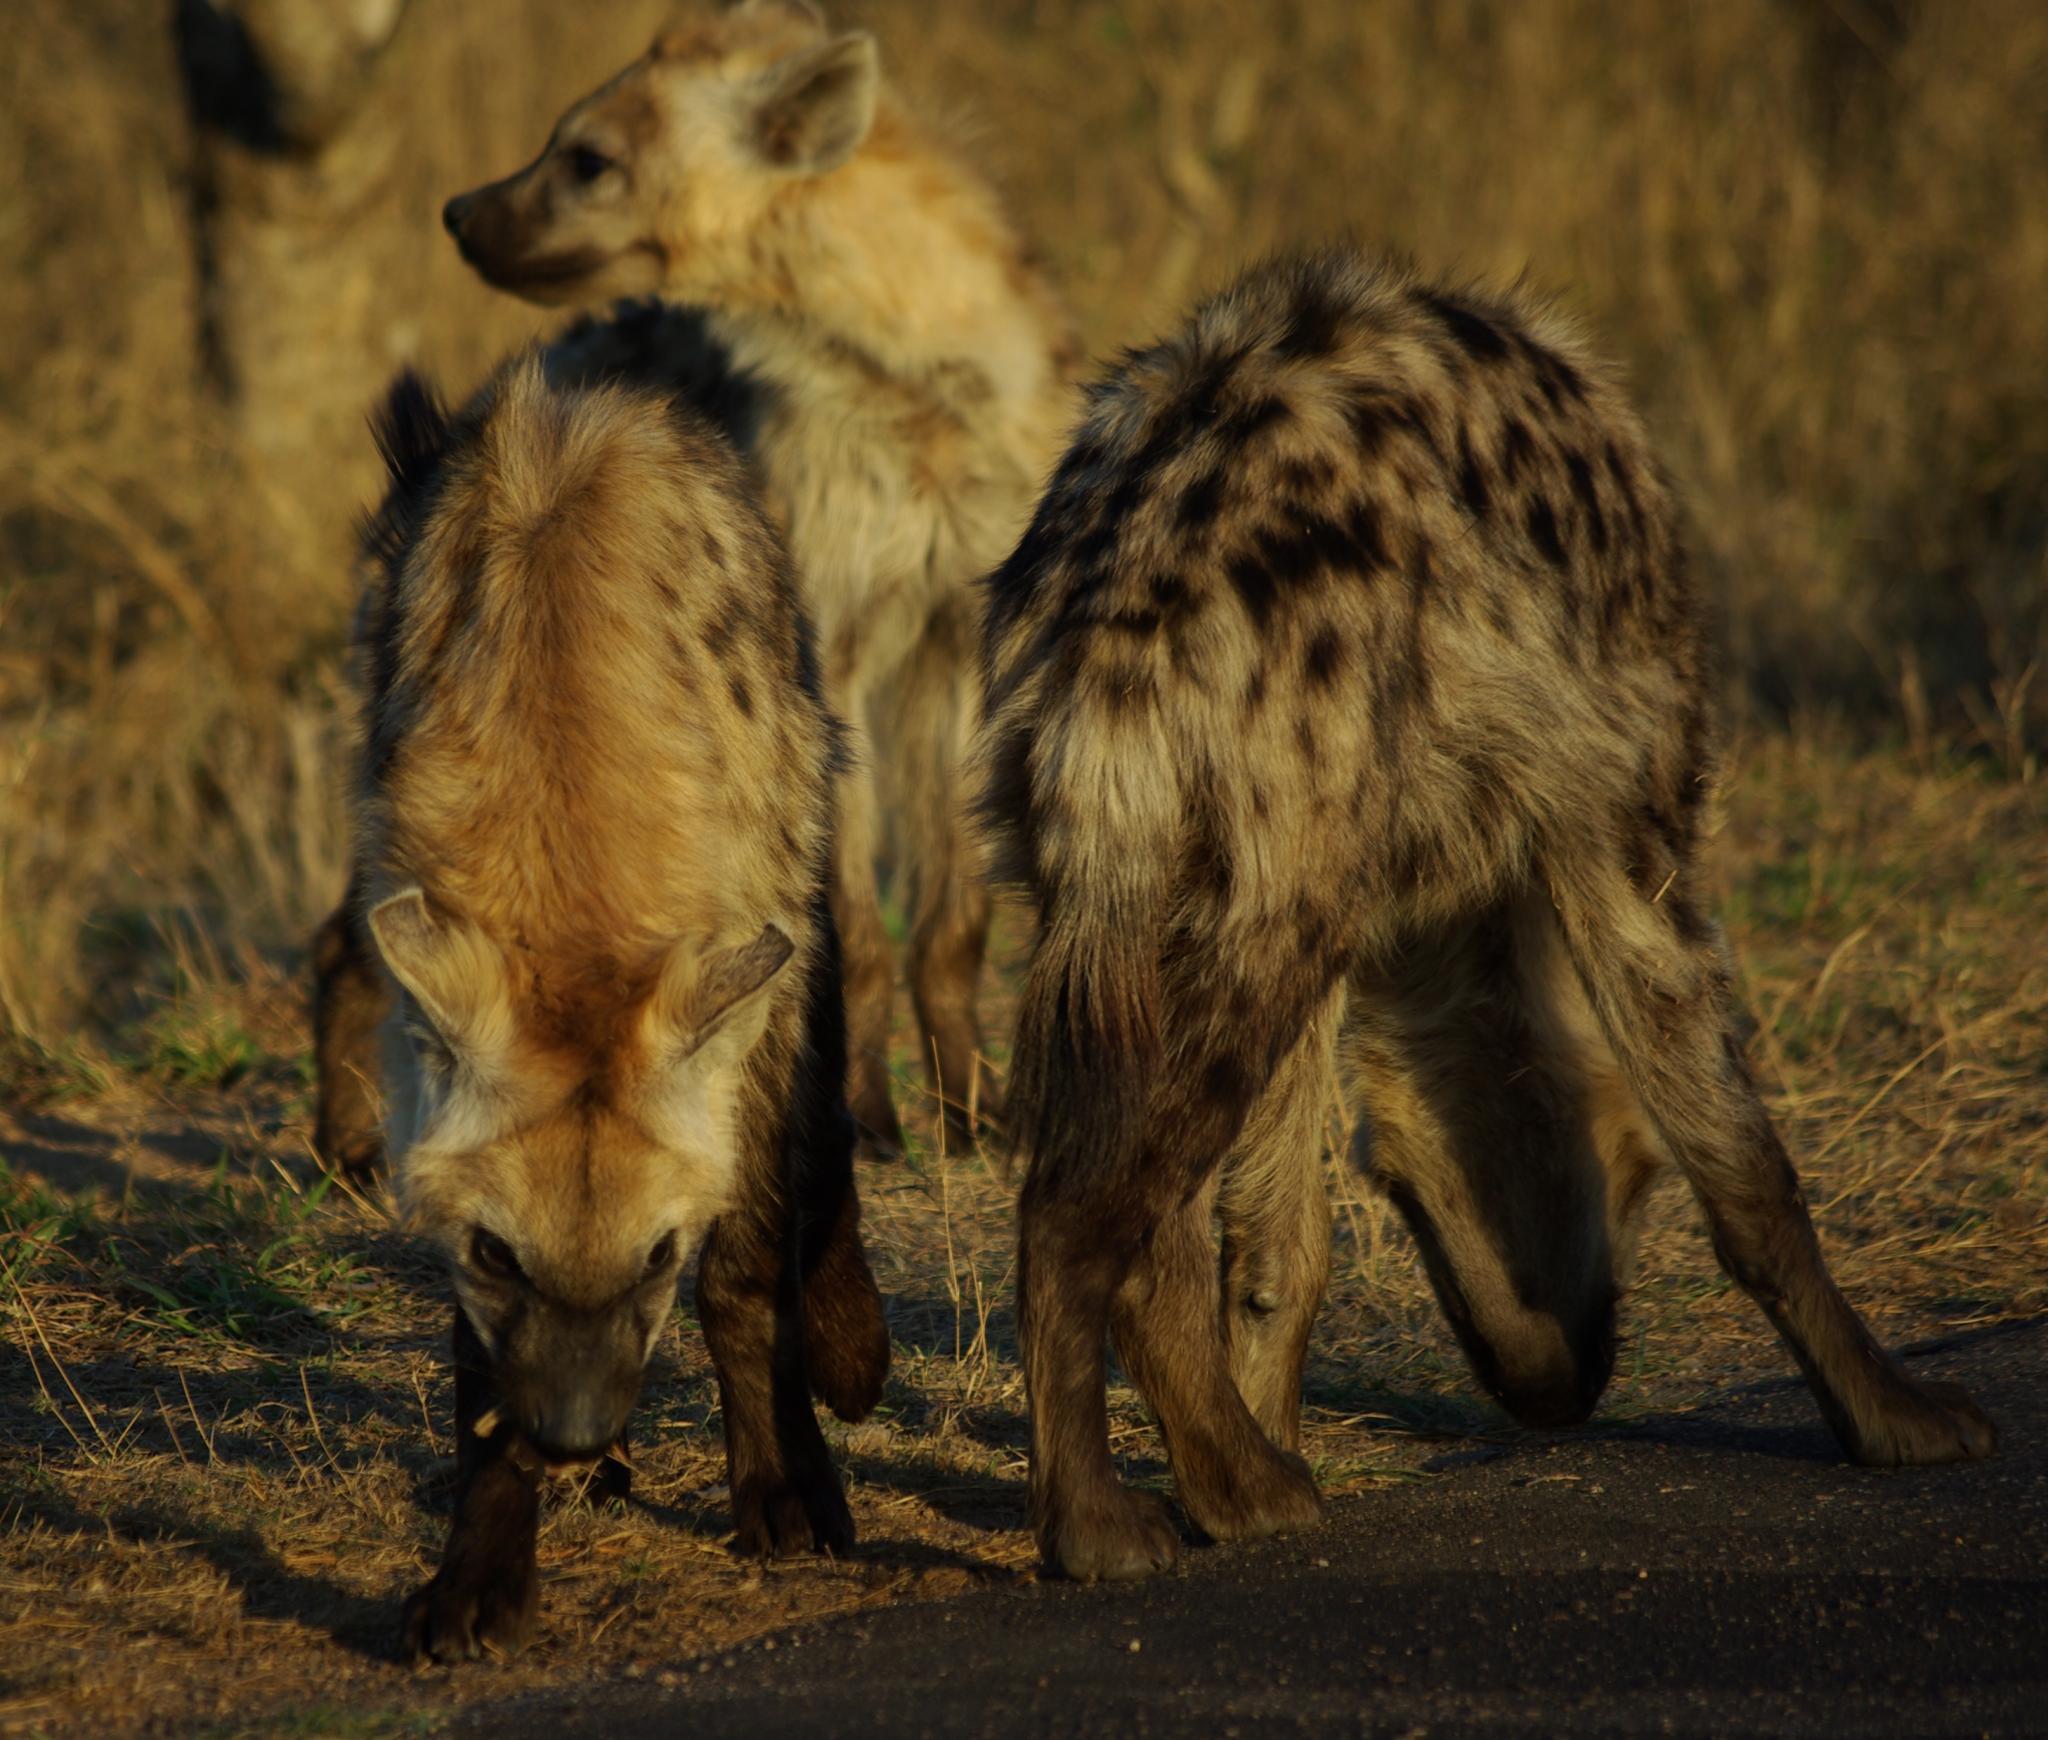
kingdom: Animalia
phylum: Chordata
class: Mammalia
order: Carnivora
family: Hyaenidae
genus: Crocuta
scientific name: Crocuta crocuta
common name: Spotted hyaena
